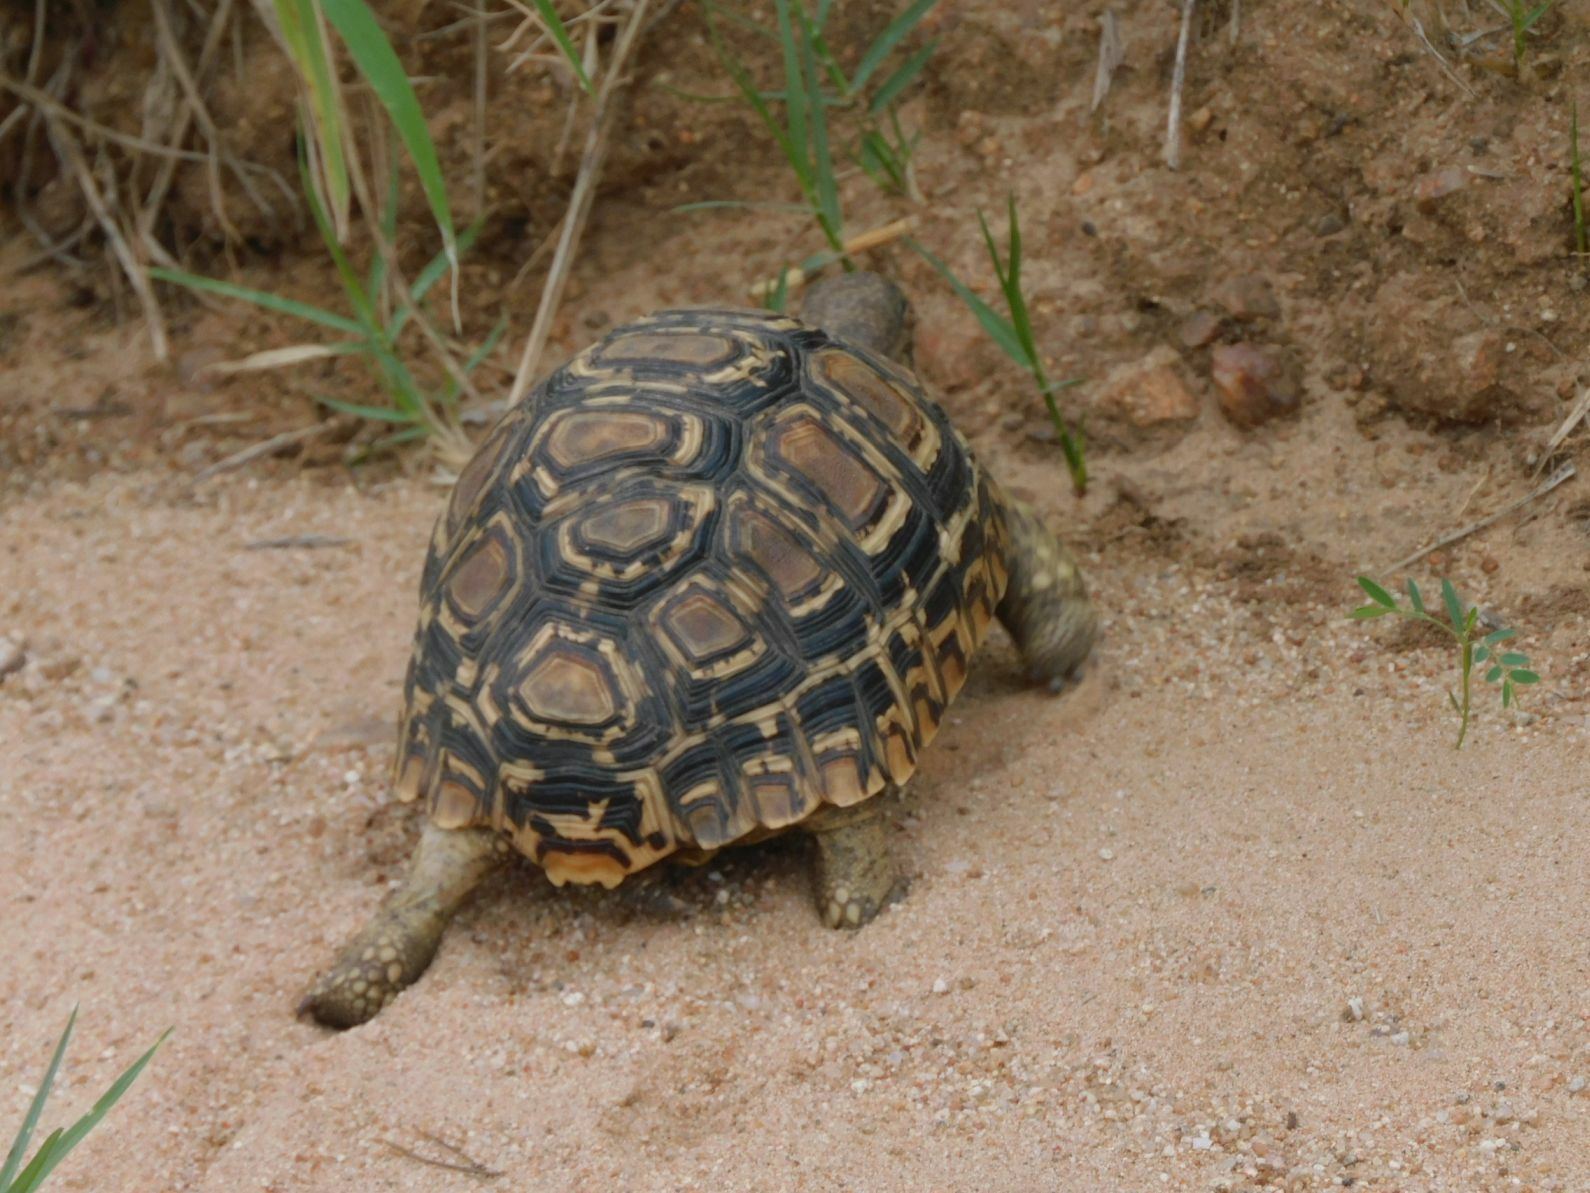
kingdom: Animalia
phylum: Chordata
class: Testudines
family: Testudinidae
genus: Stigmochelys
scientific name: Stigmochelys pardalis
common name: Leopard tortoise
